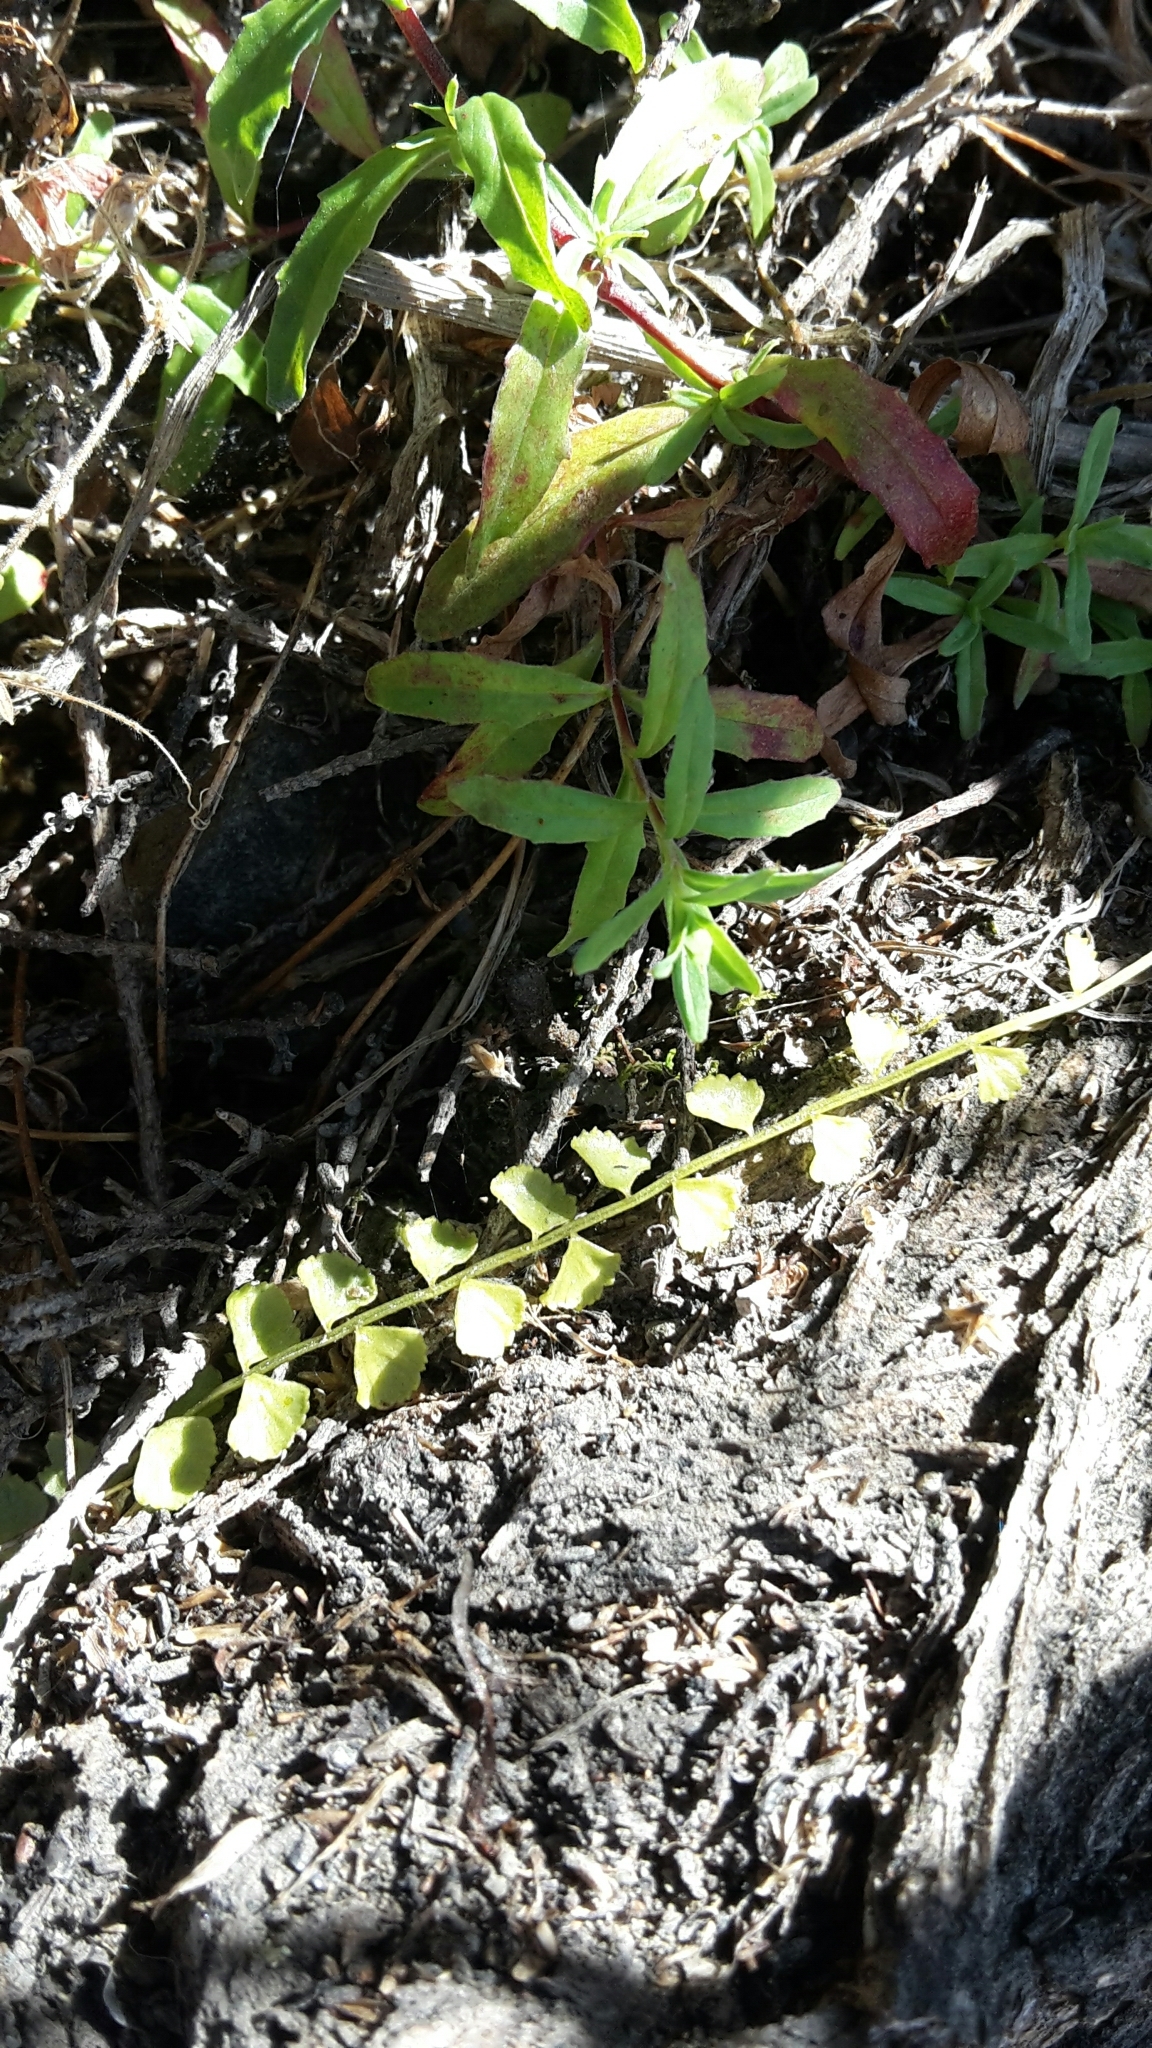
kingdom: Plantae
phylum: Tracheophyta
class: Polypodiopsida
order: Polypodiales
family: Aspleniaceae
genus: Asplenium
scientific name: Asplenium flabellifolium
